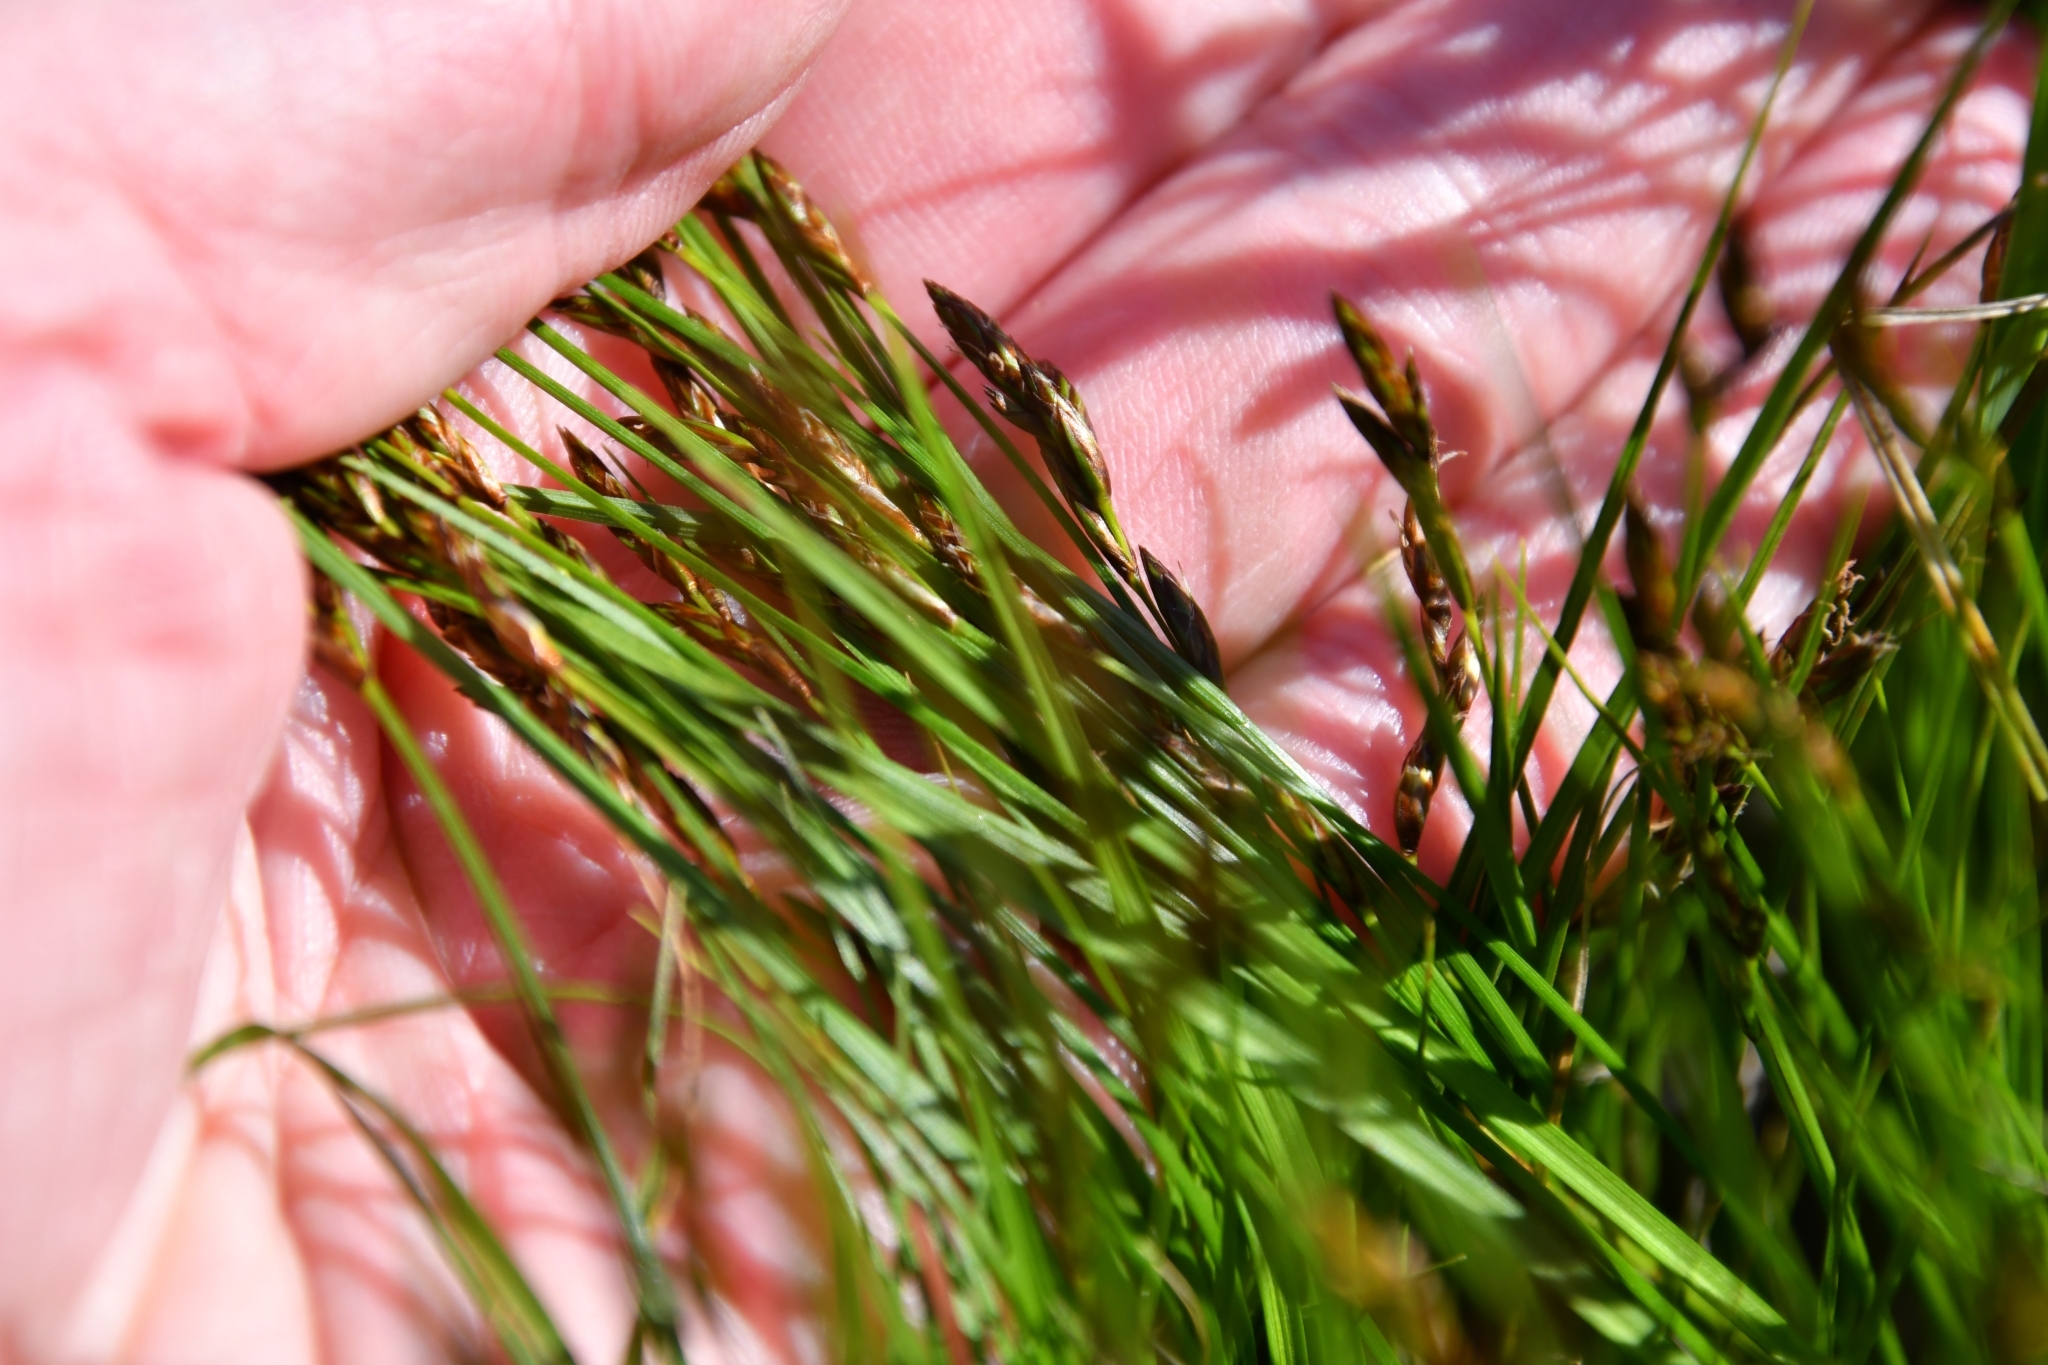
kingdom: Plantae
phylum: Tracheophyta
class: Liliopsida
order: Poales
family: Cyperaceae
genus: Carex
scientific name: Carex praecox
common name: Early sedge
